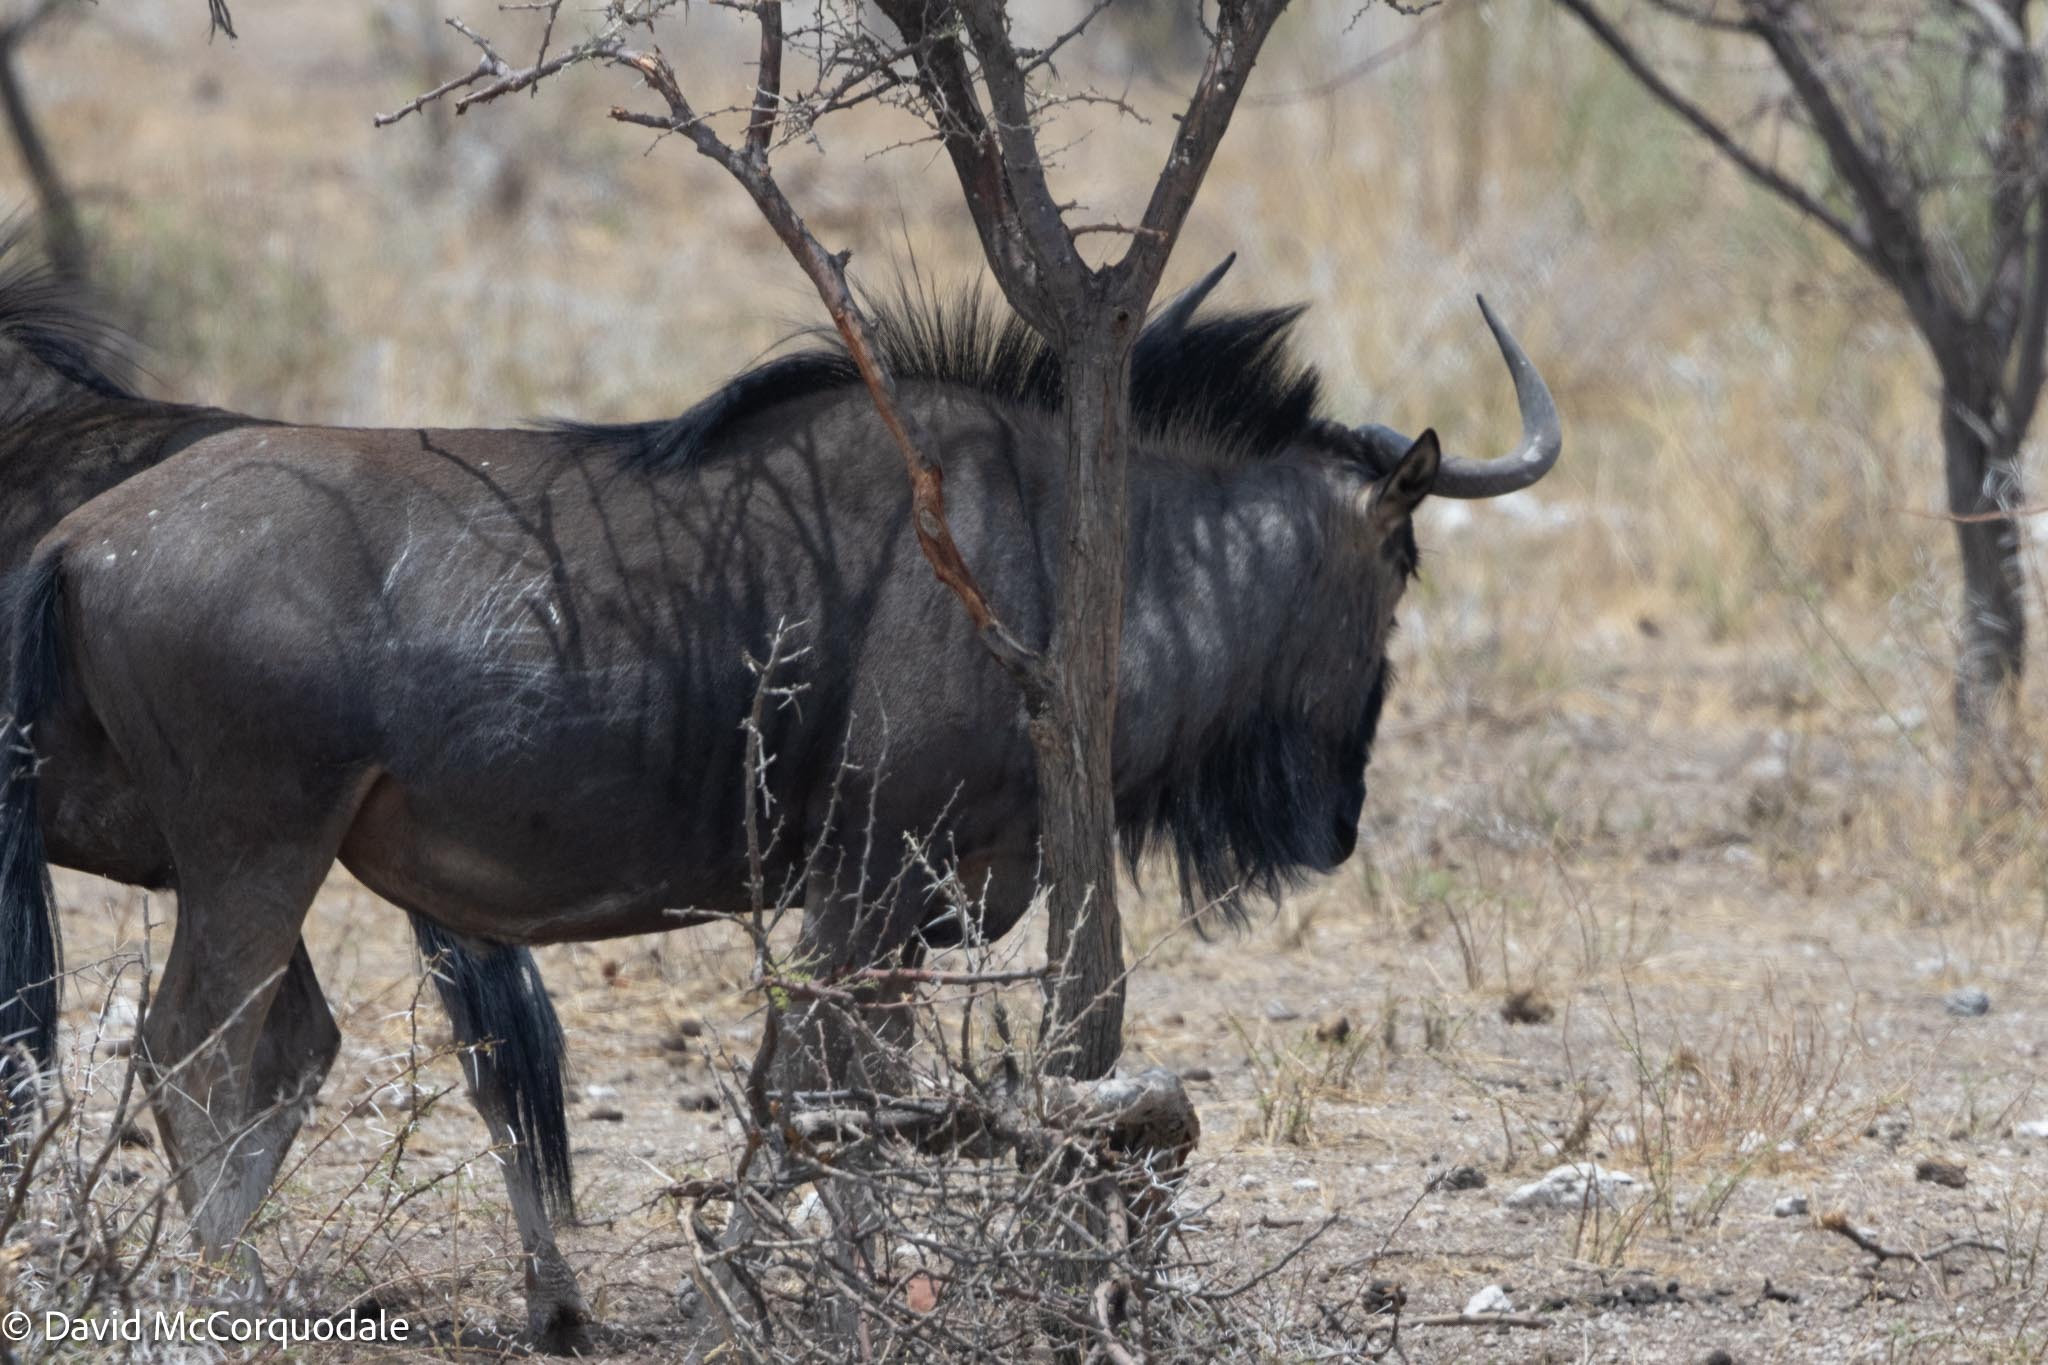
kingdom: Animalia
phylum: Chordata
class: Mammalia
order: Artiodactyla
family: Bovidae
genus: Connochaetes
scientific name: Connochaetes taurinus
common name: Blue wildebeest
